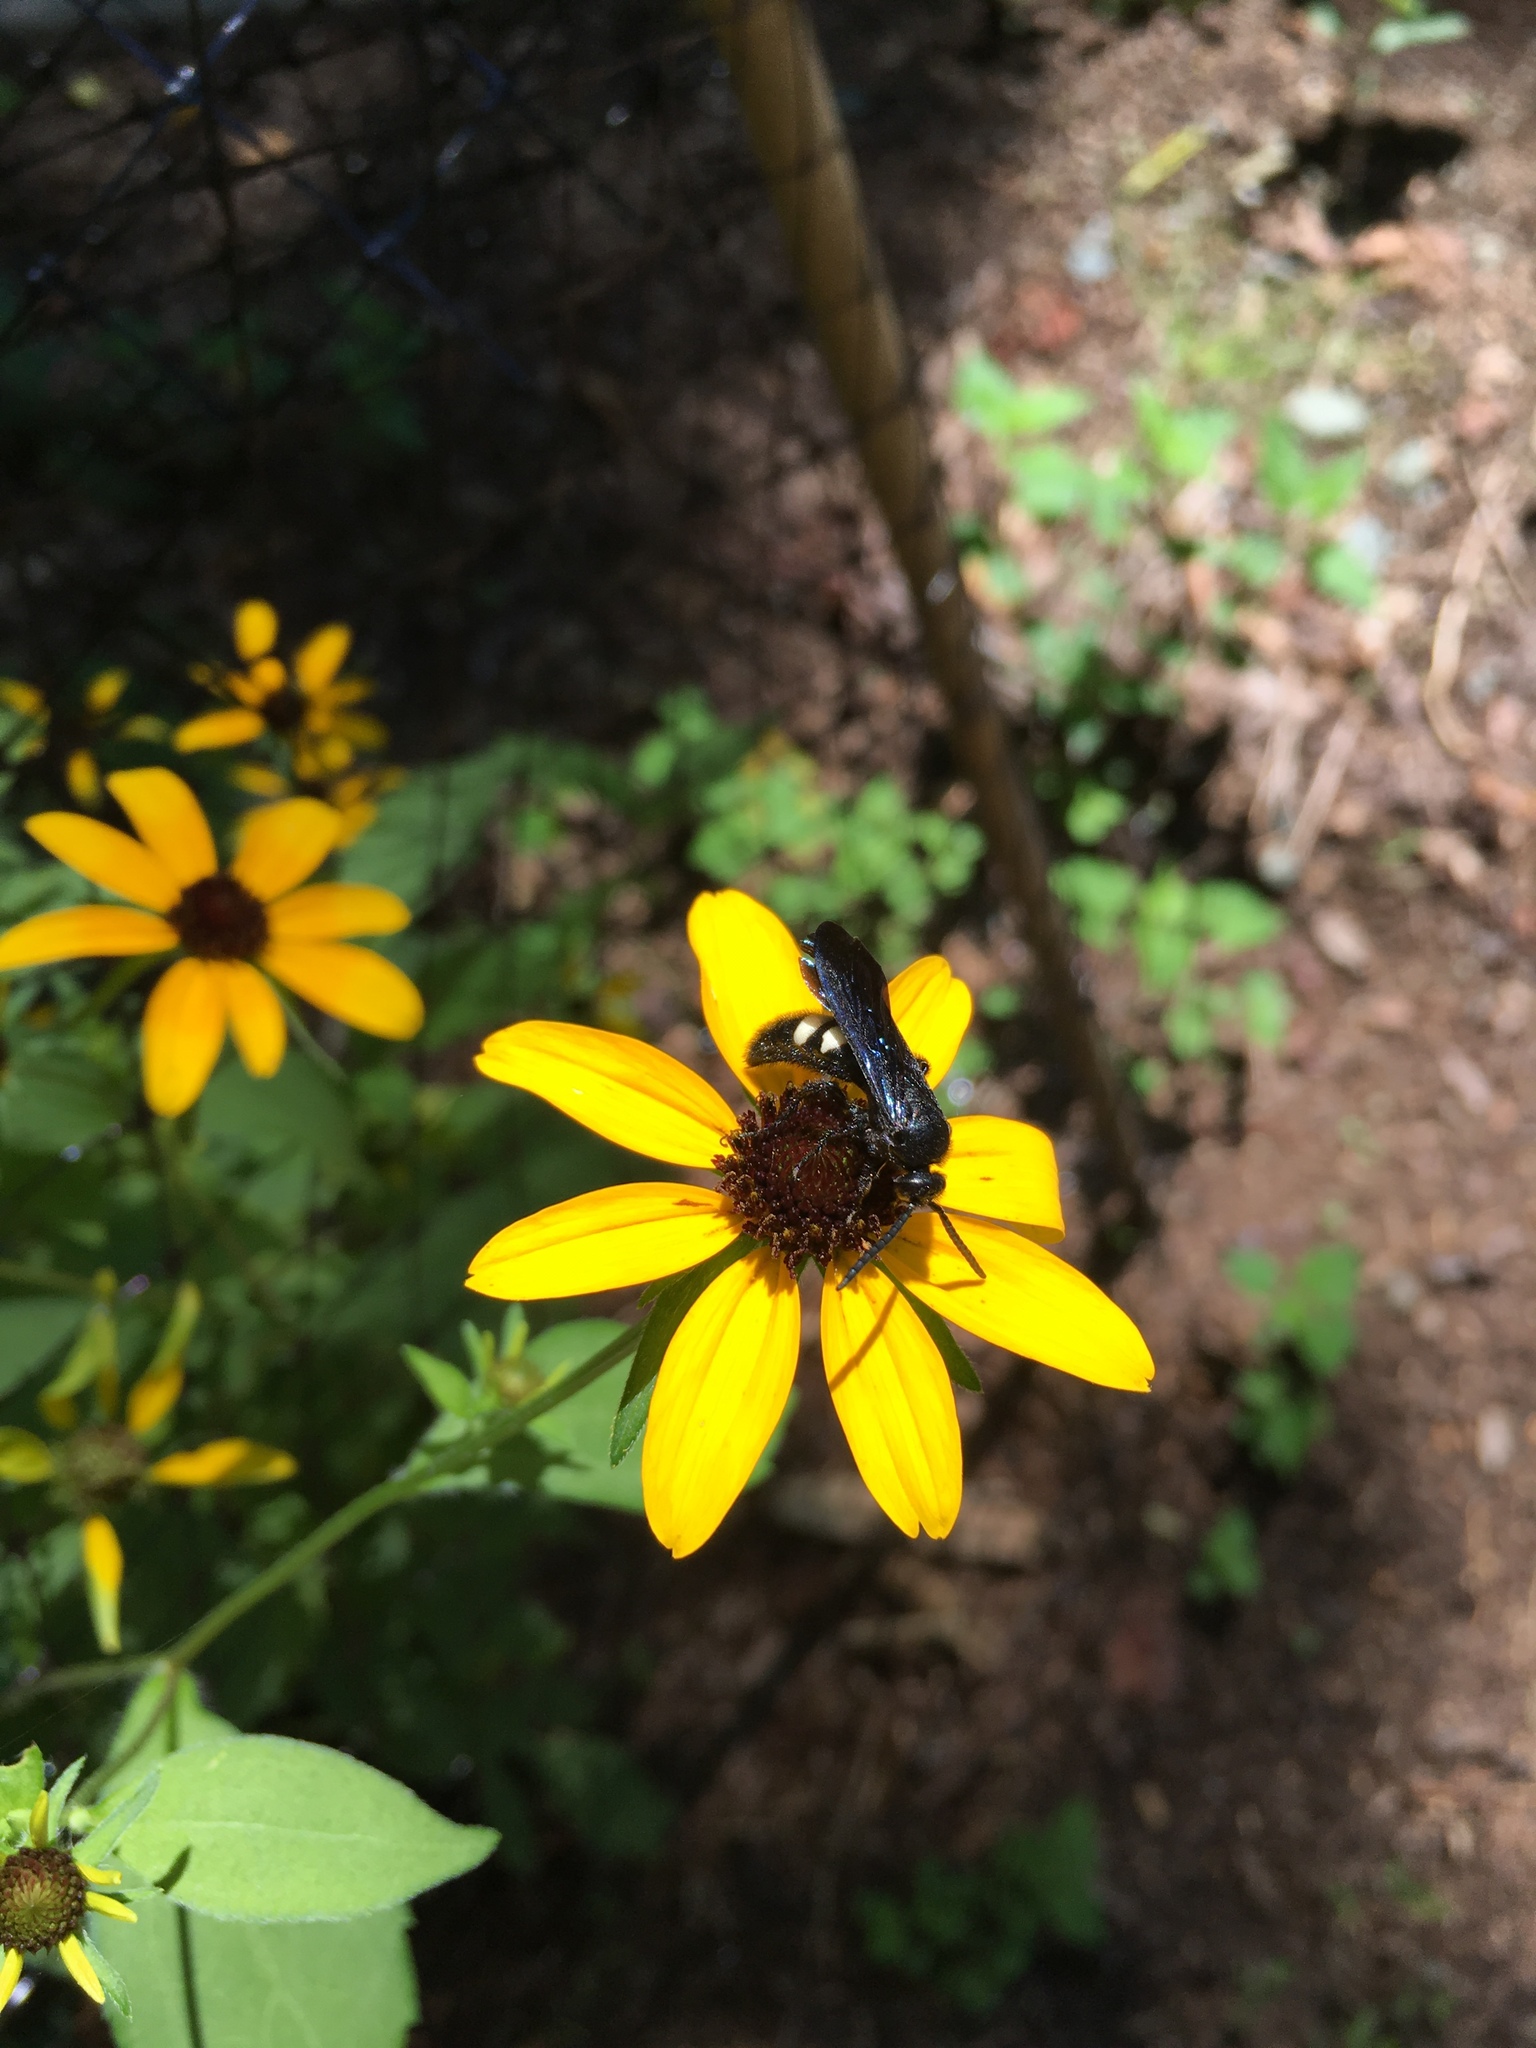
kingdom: Animalia
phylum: Arthropoda
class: Insecta
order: Hymenoptera
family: Scoliidae
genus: Scolia
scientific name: Scolia bicincta
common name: Double-banded scoliid wasp
